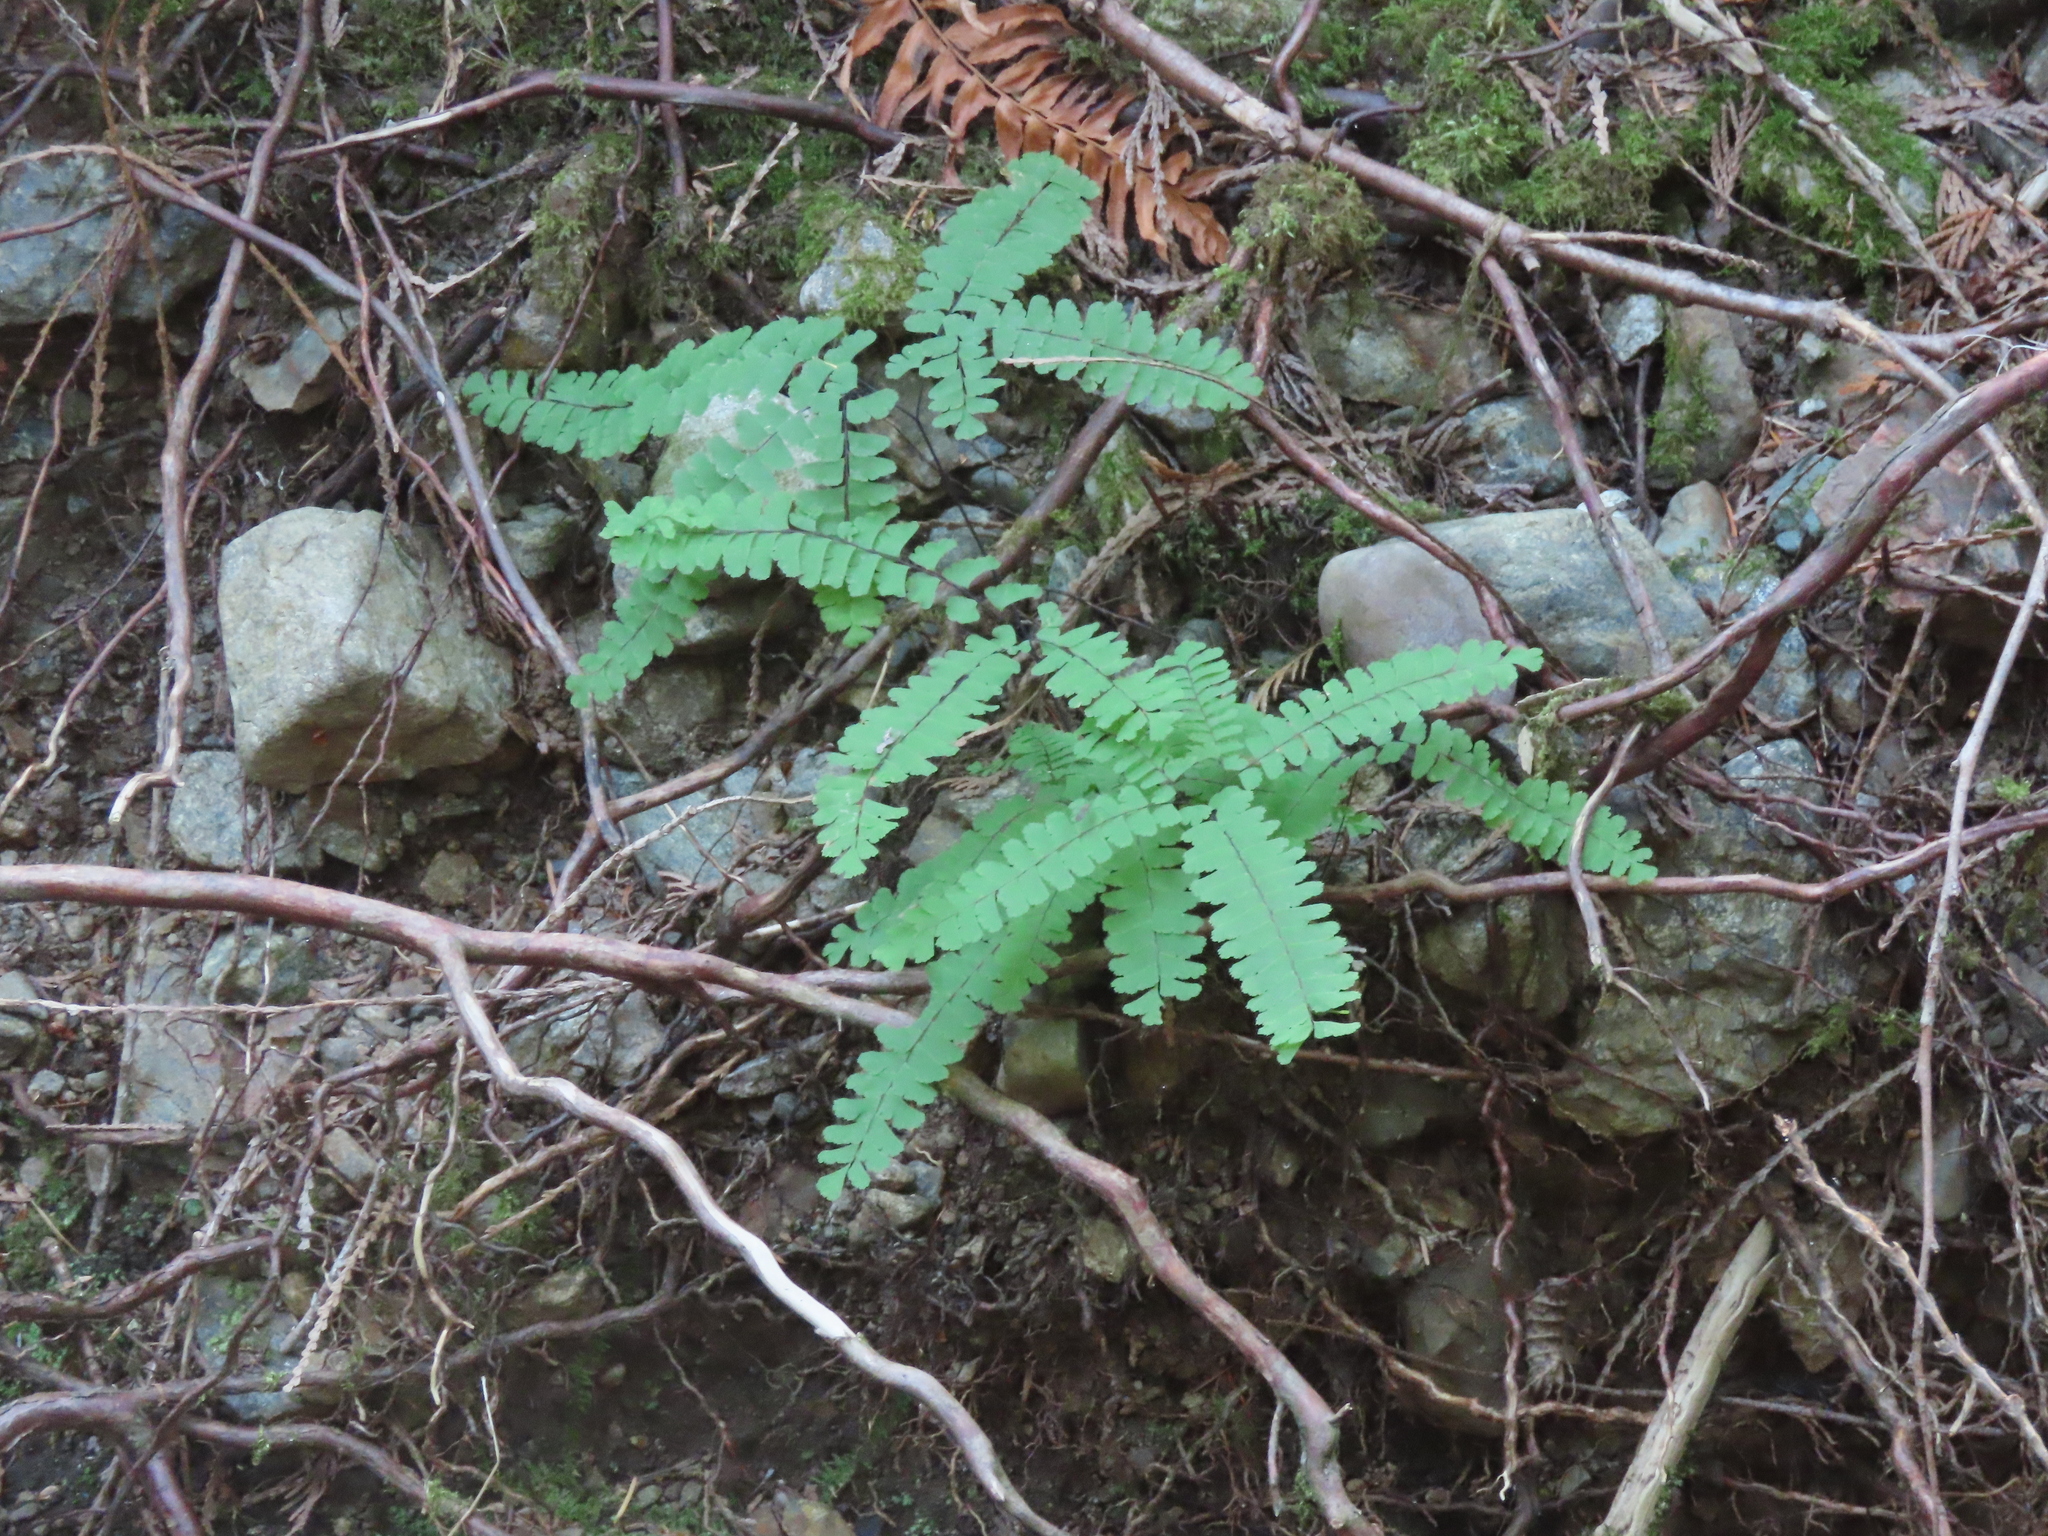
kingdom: Plantae
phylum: Tracheophyta
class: Polypodiopsida
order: Polypodiales
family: Pteridaceae
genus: Adiantum
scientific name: Adiantum aleuticum
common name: Aleutian maidenhair fern
